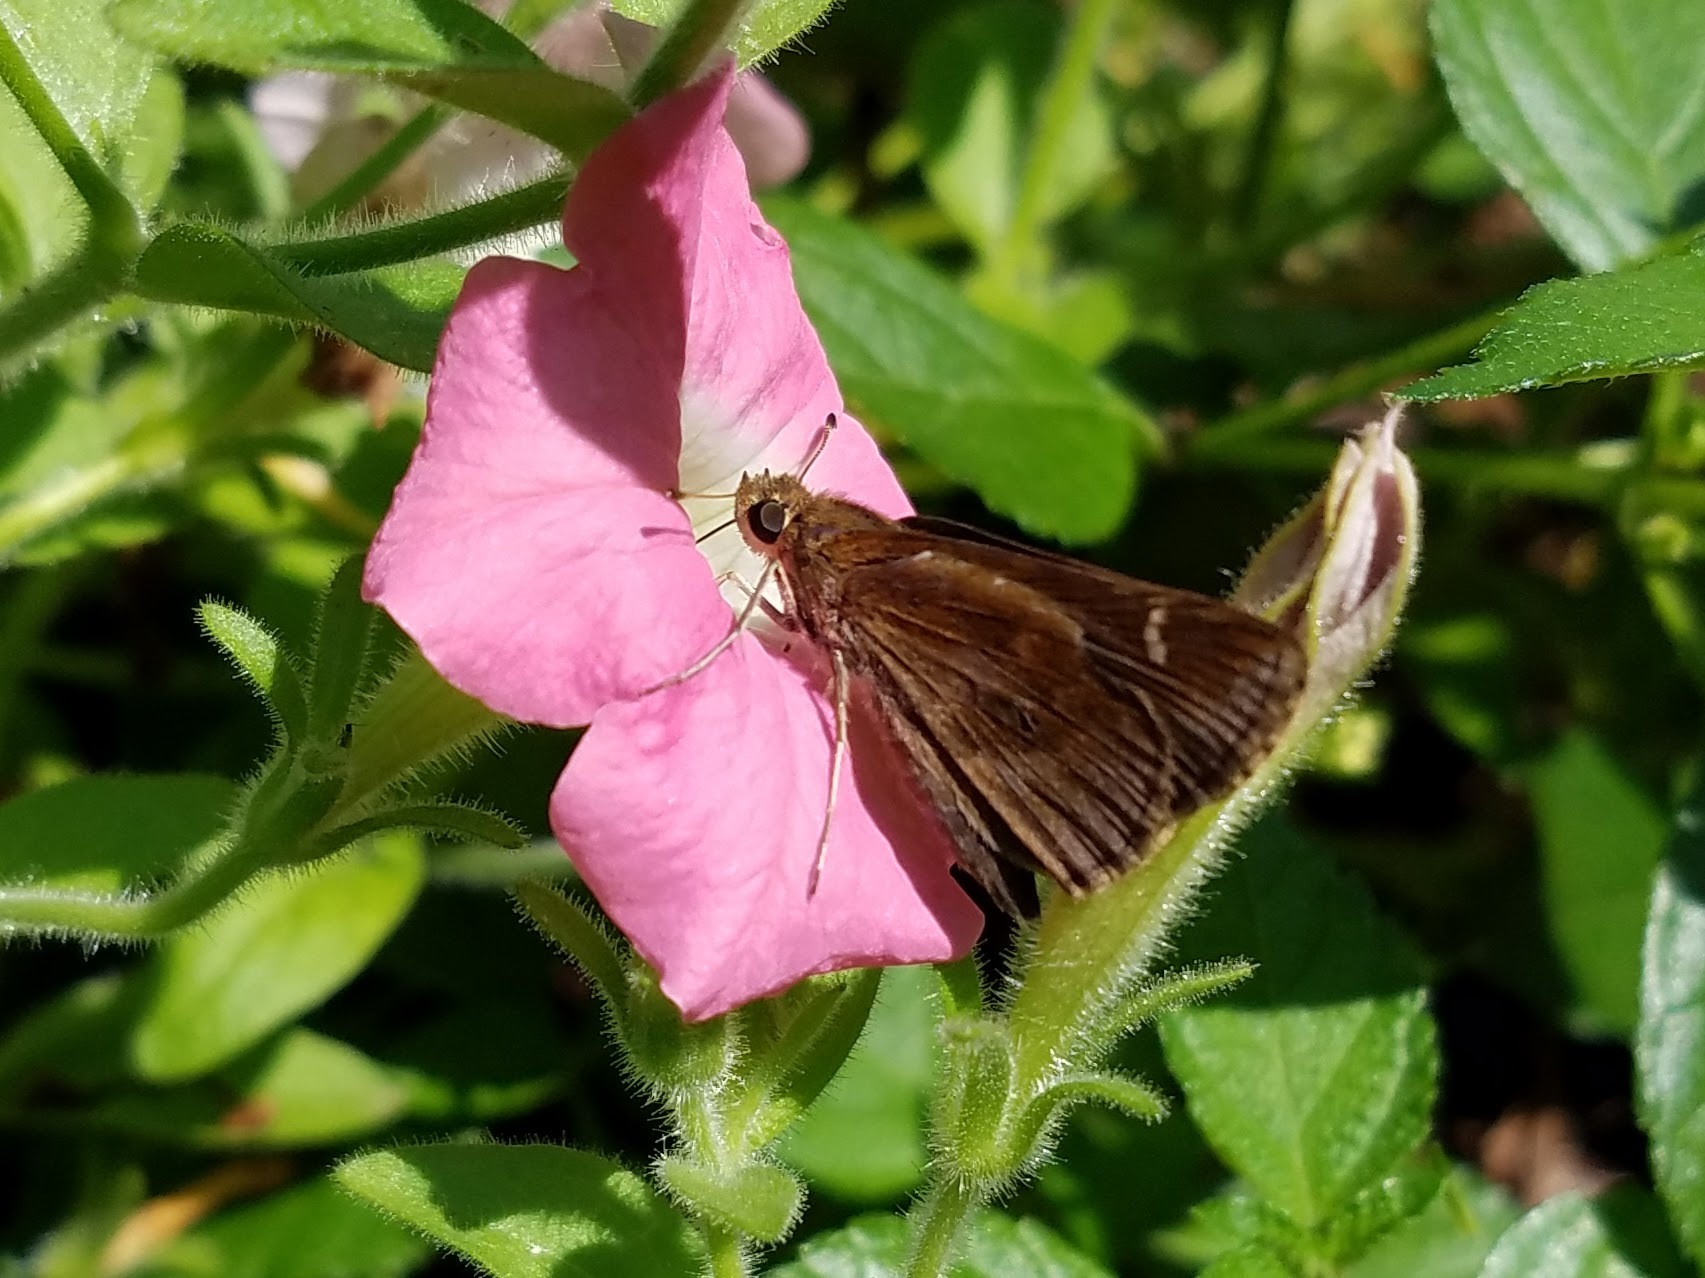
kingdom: Animalia
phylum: Arthropoda
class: Insecta
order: Lepidoptera
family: Hesperiidae
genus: Lerema
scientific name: Lerema accius
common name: Clouded skipper
